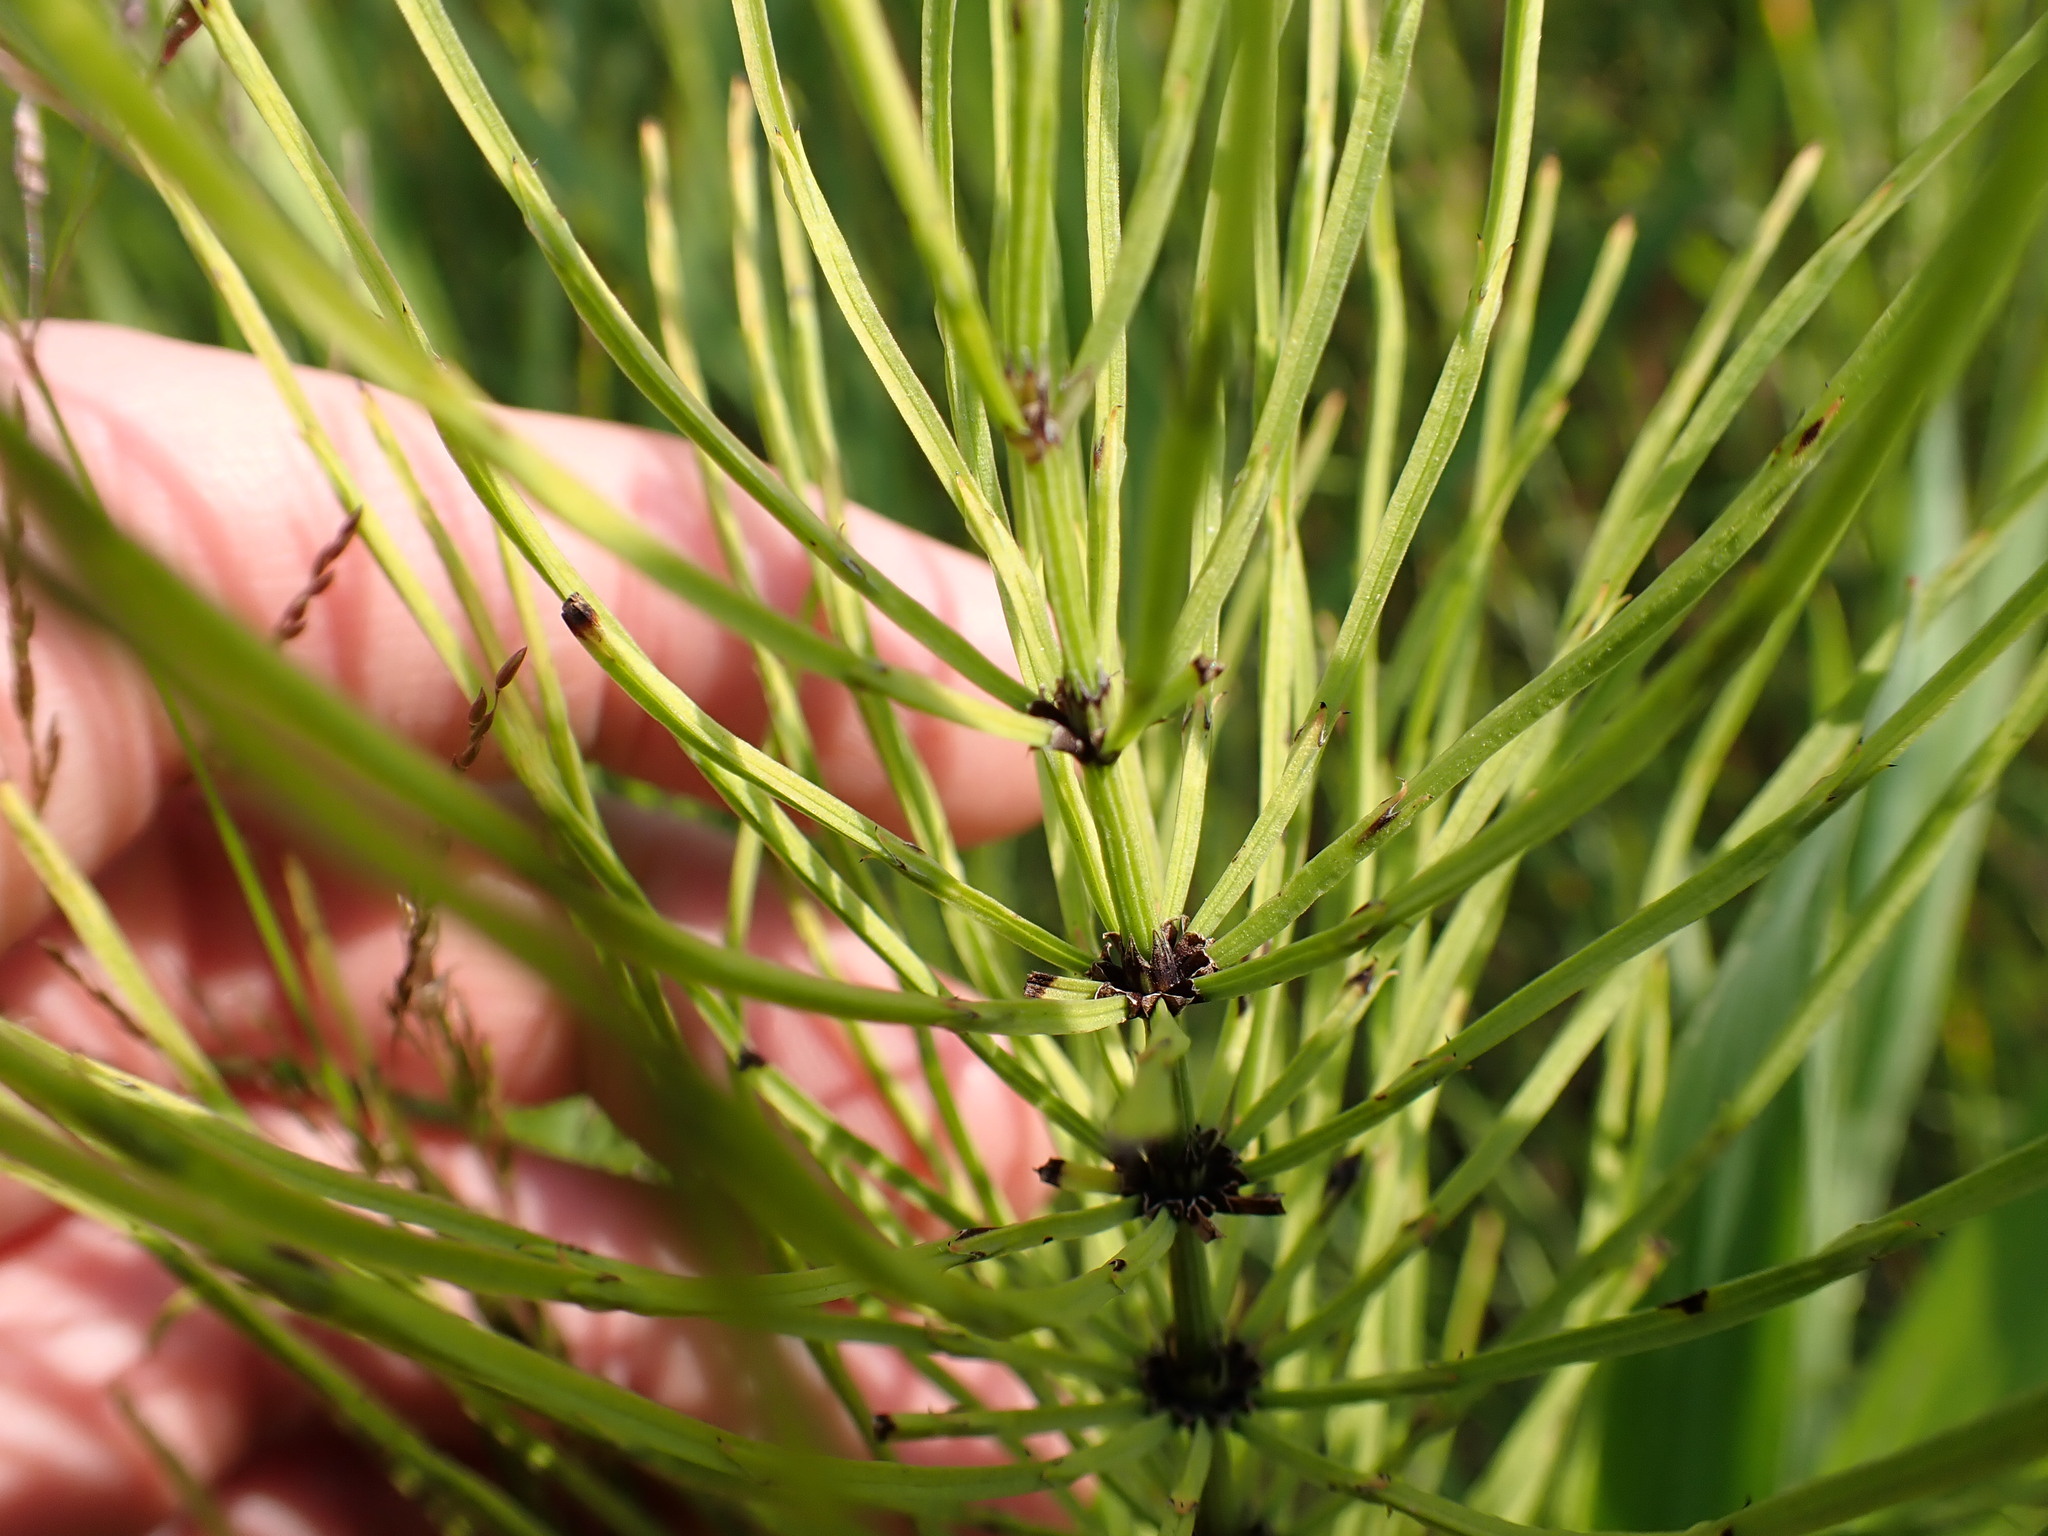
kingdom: Plantae
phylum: Tracheophyta
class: Polypodiopsida
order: Equisetales
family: Equisetaceae
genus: Equisetum
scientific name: Equisetum arvense
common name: Field horsetail
